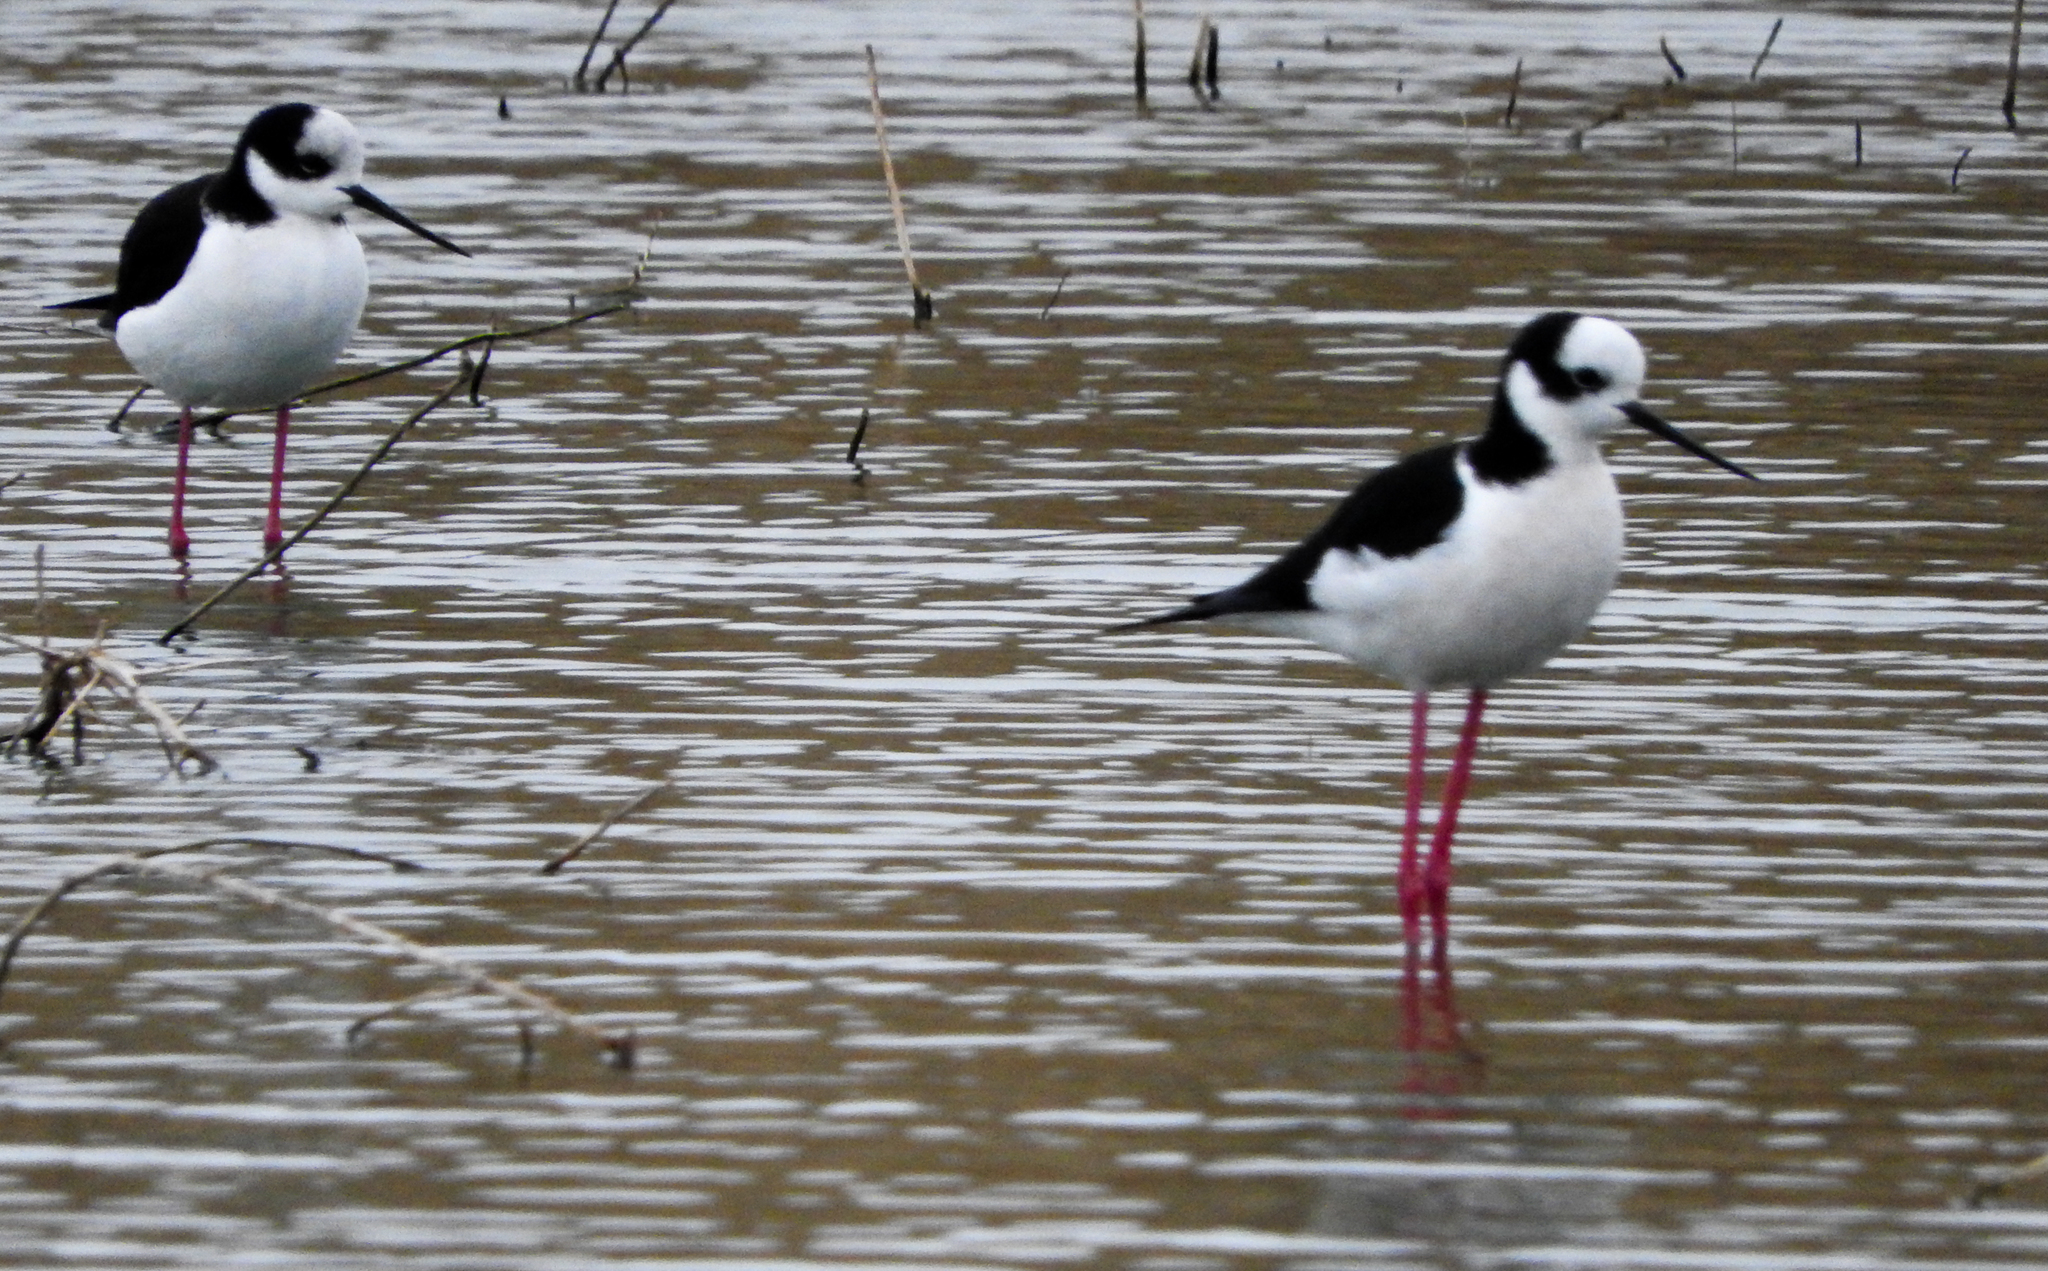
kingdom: Animalia
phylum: Chordata
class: Aves
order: Charadriiformes
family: Recurvirostridae
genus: Himantopus
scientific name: Himantopus mexicanus
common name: Black-necked stilt
